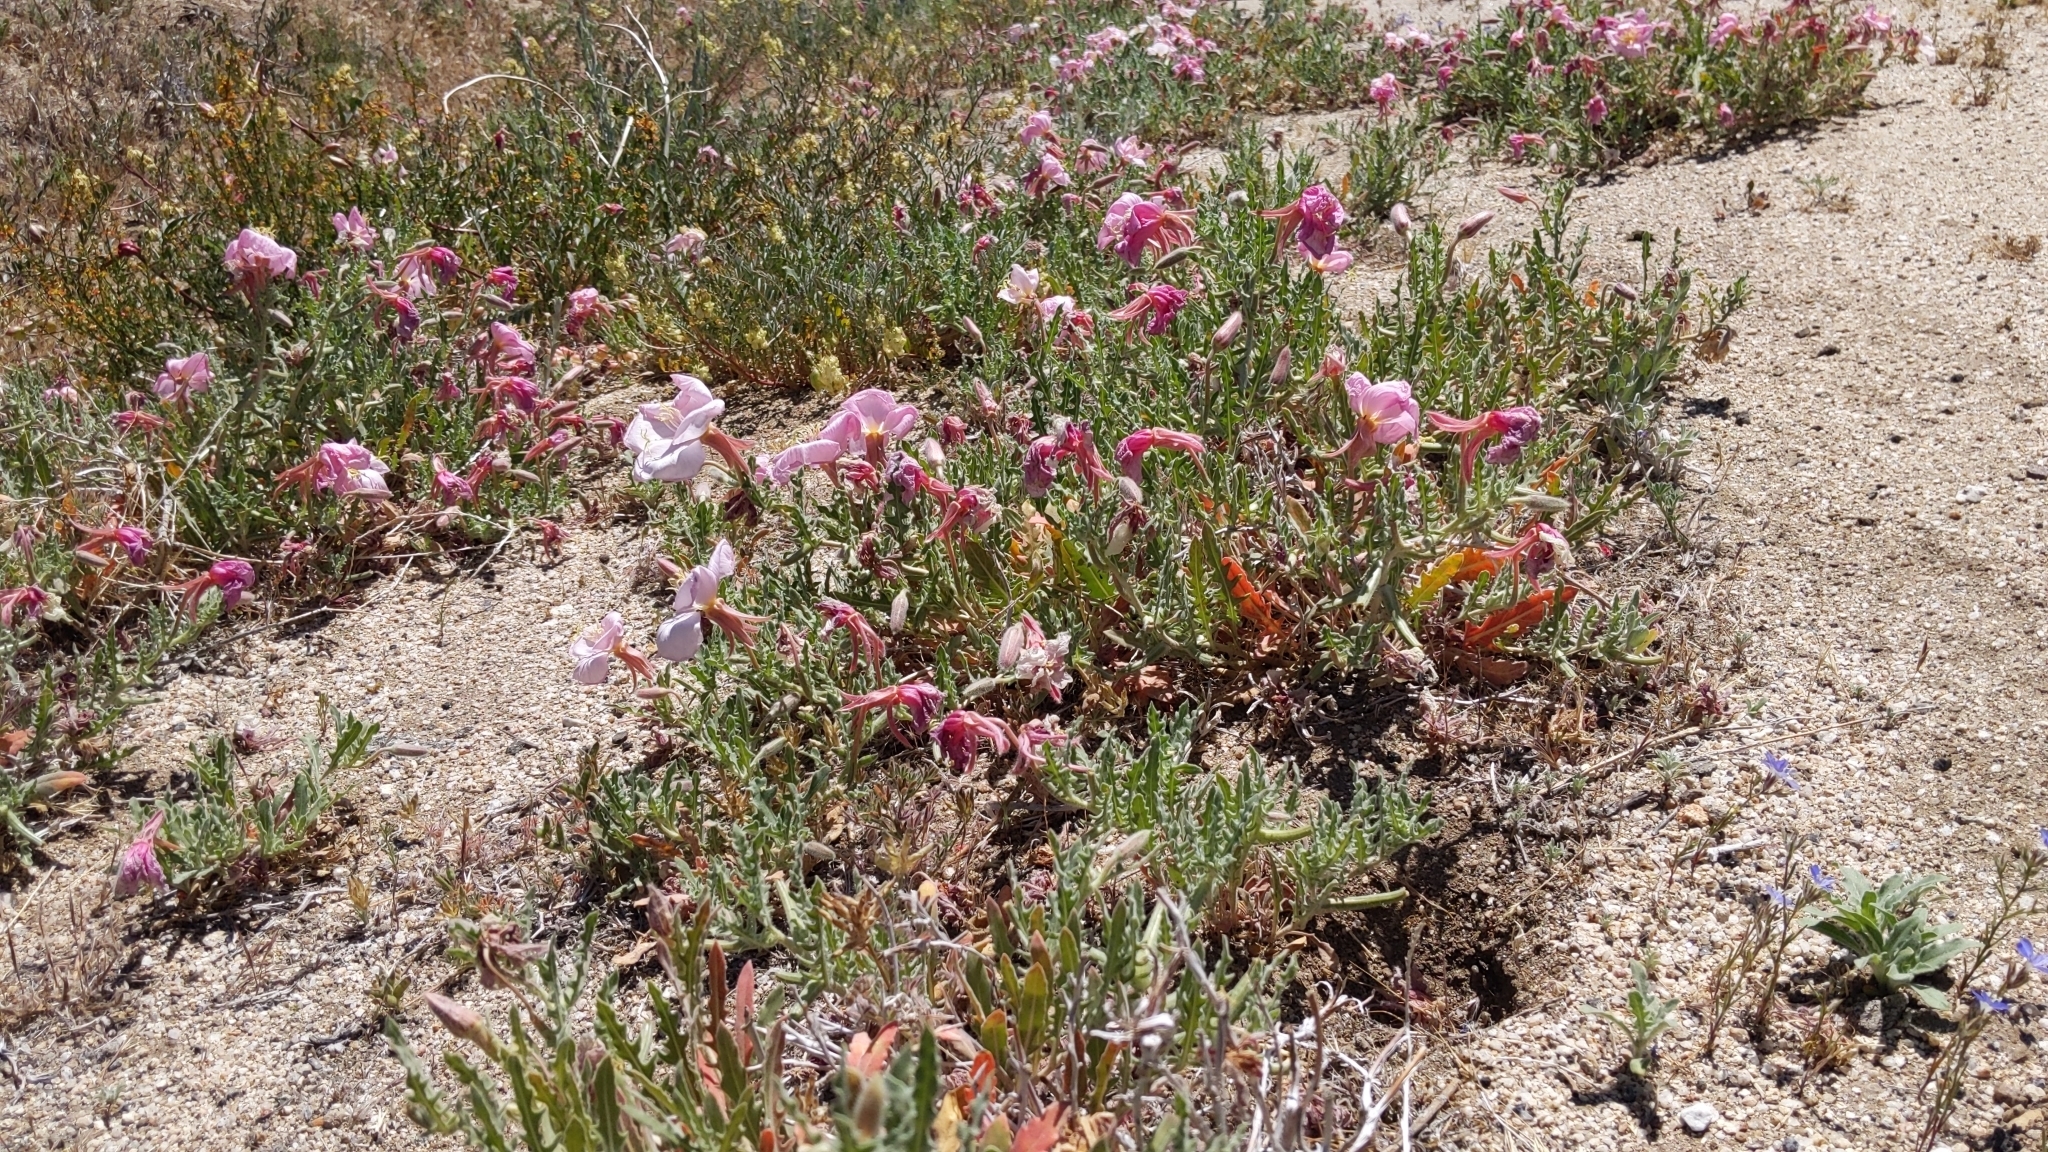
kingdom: Plantae
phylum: Tracheophyta
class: Magnoliopsida
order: Myrtales
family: Onagraceae
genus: Oenothera
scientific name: Oenothera californica
